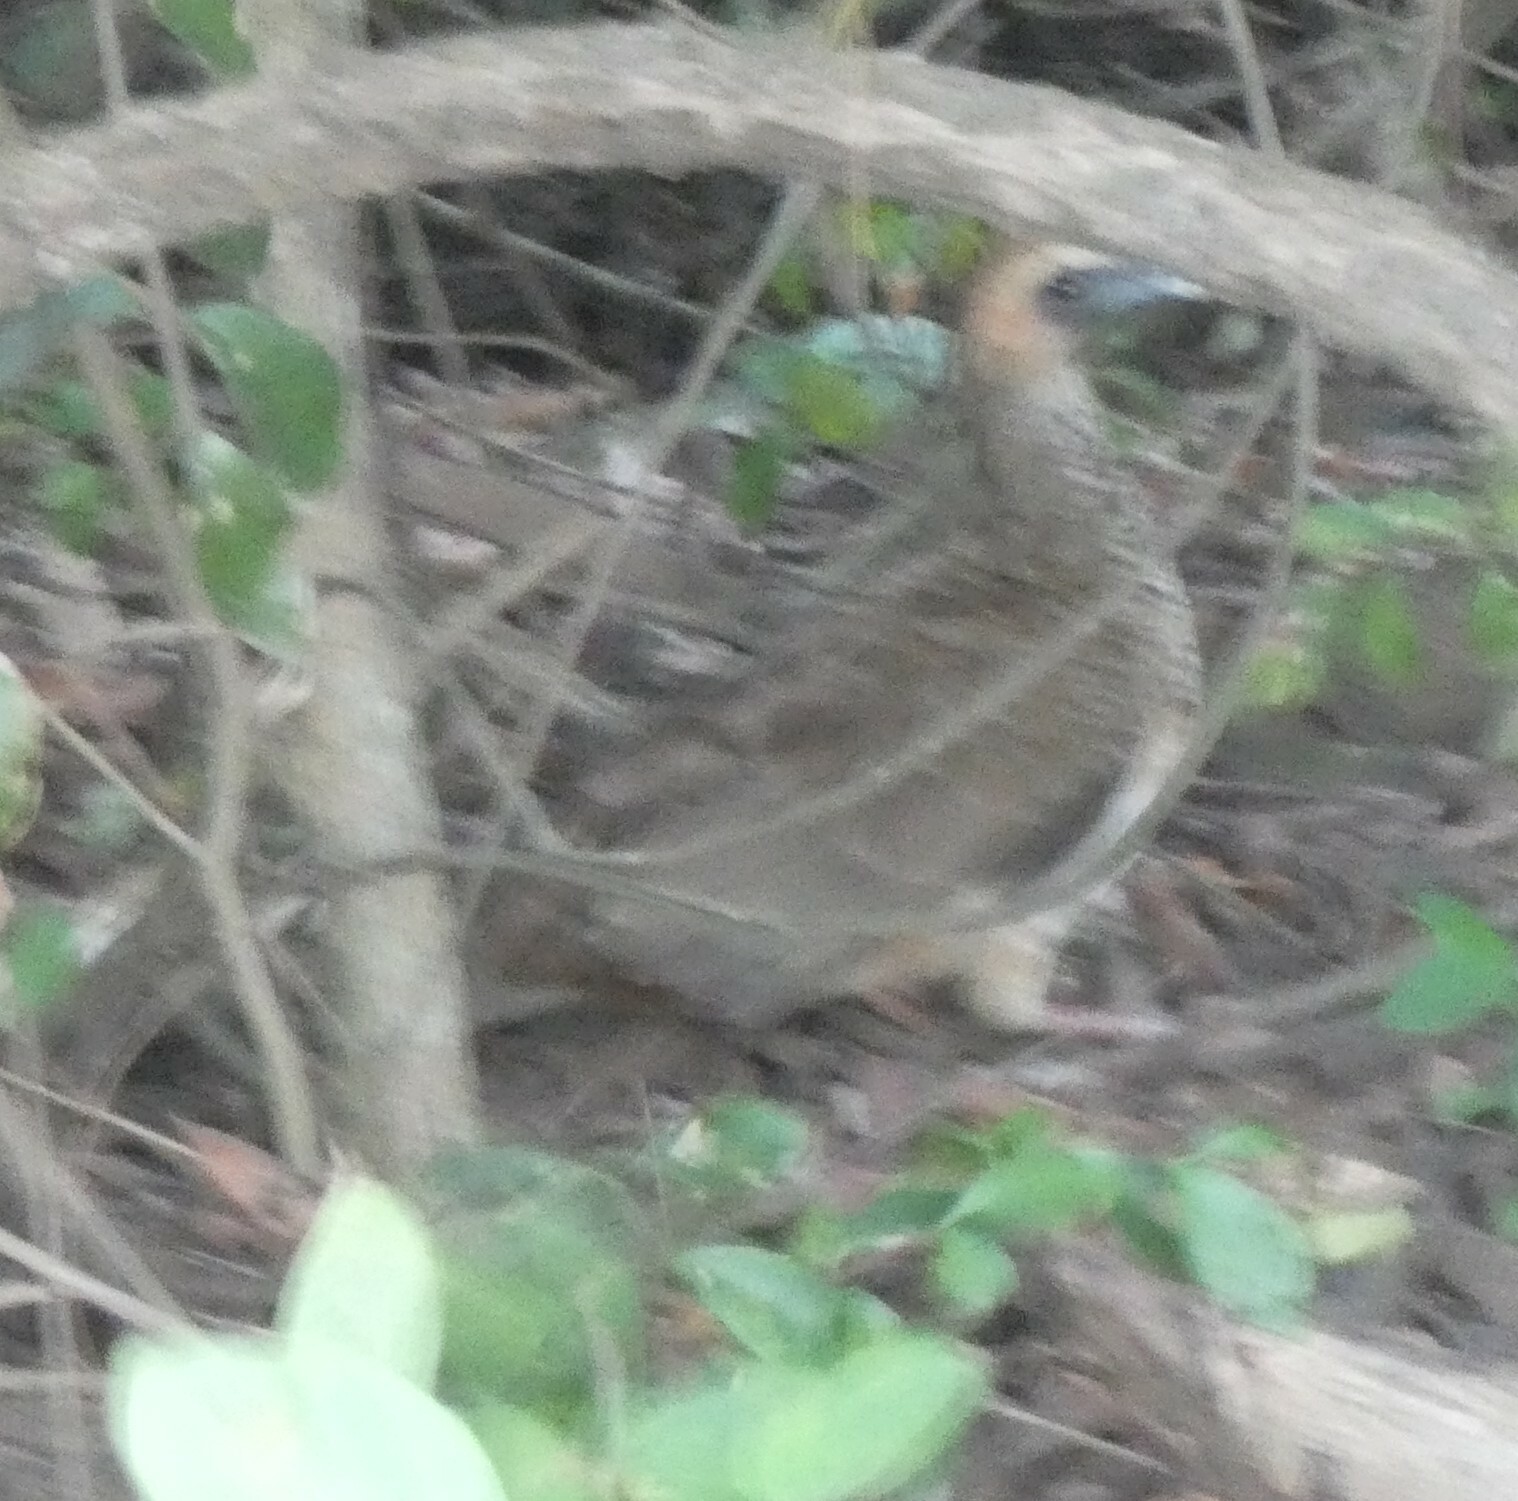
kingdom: Animalia
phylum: Chordata
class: Aves
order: Galliformes
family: Cracidae
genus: Ortalis
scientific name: Ortalis araucuan
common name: East brazilian chachalaca
